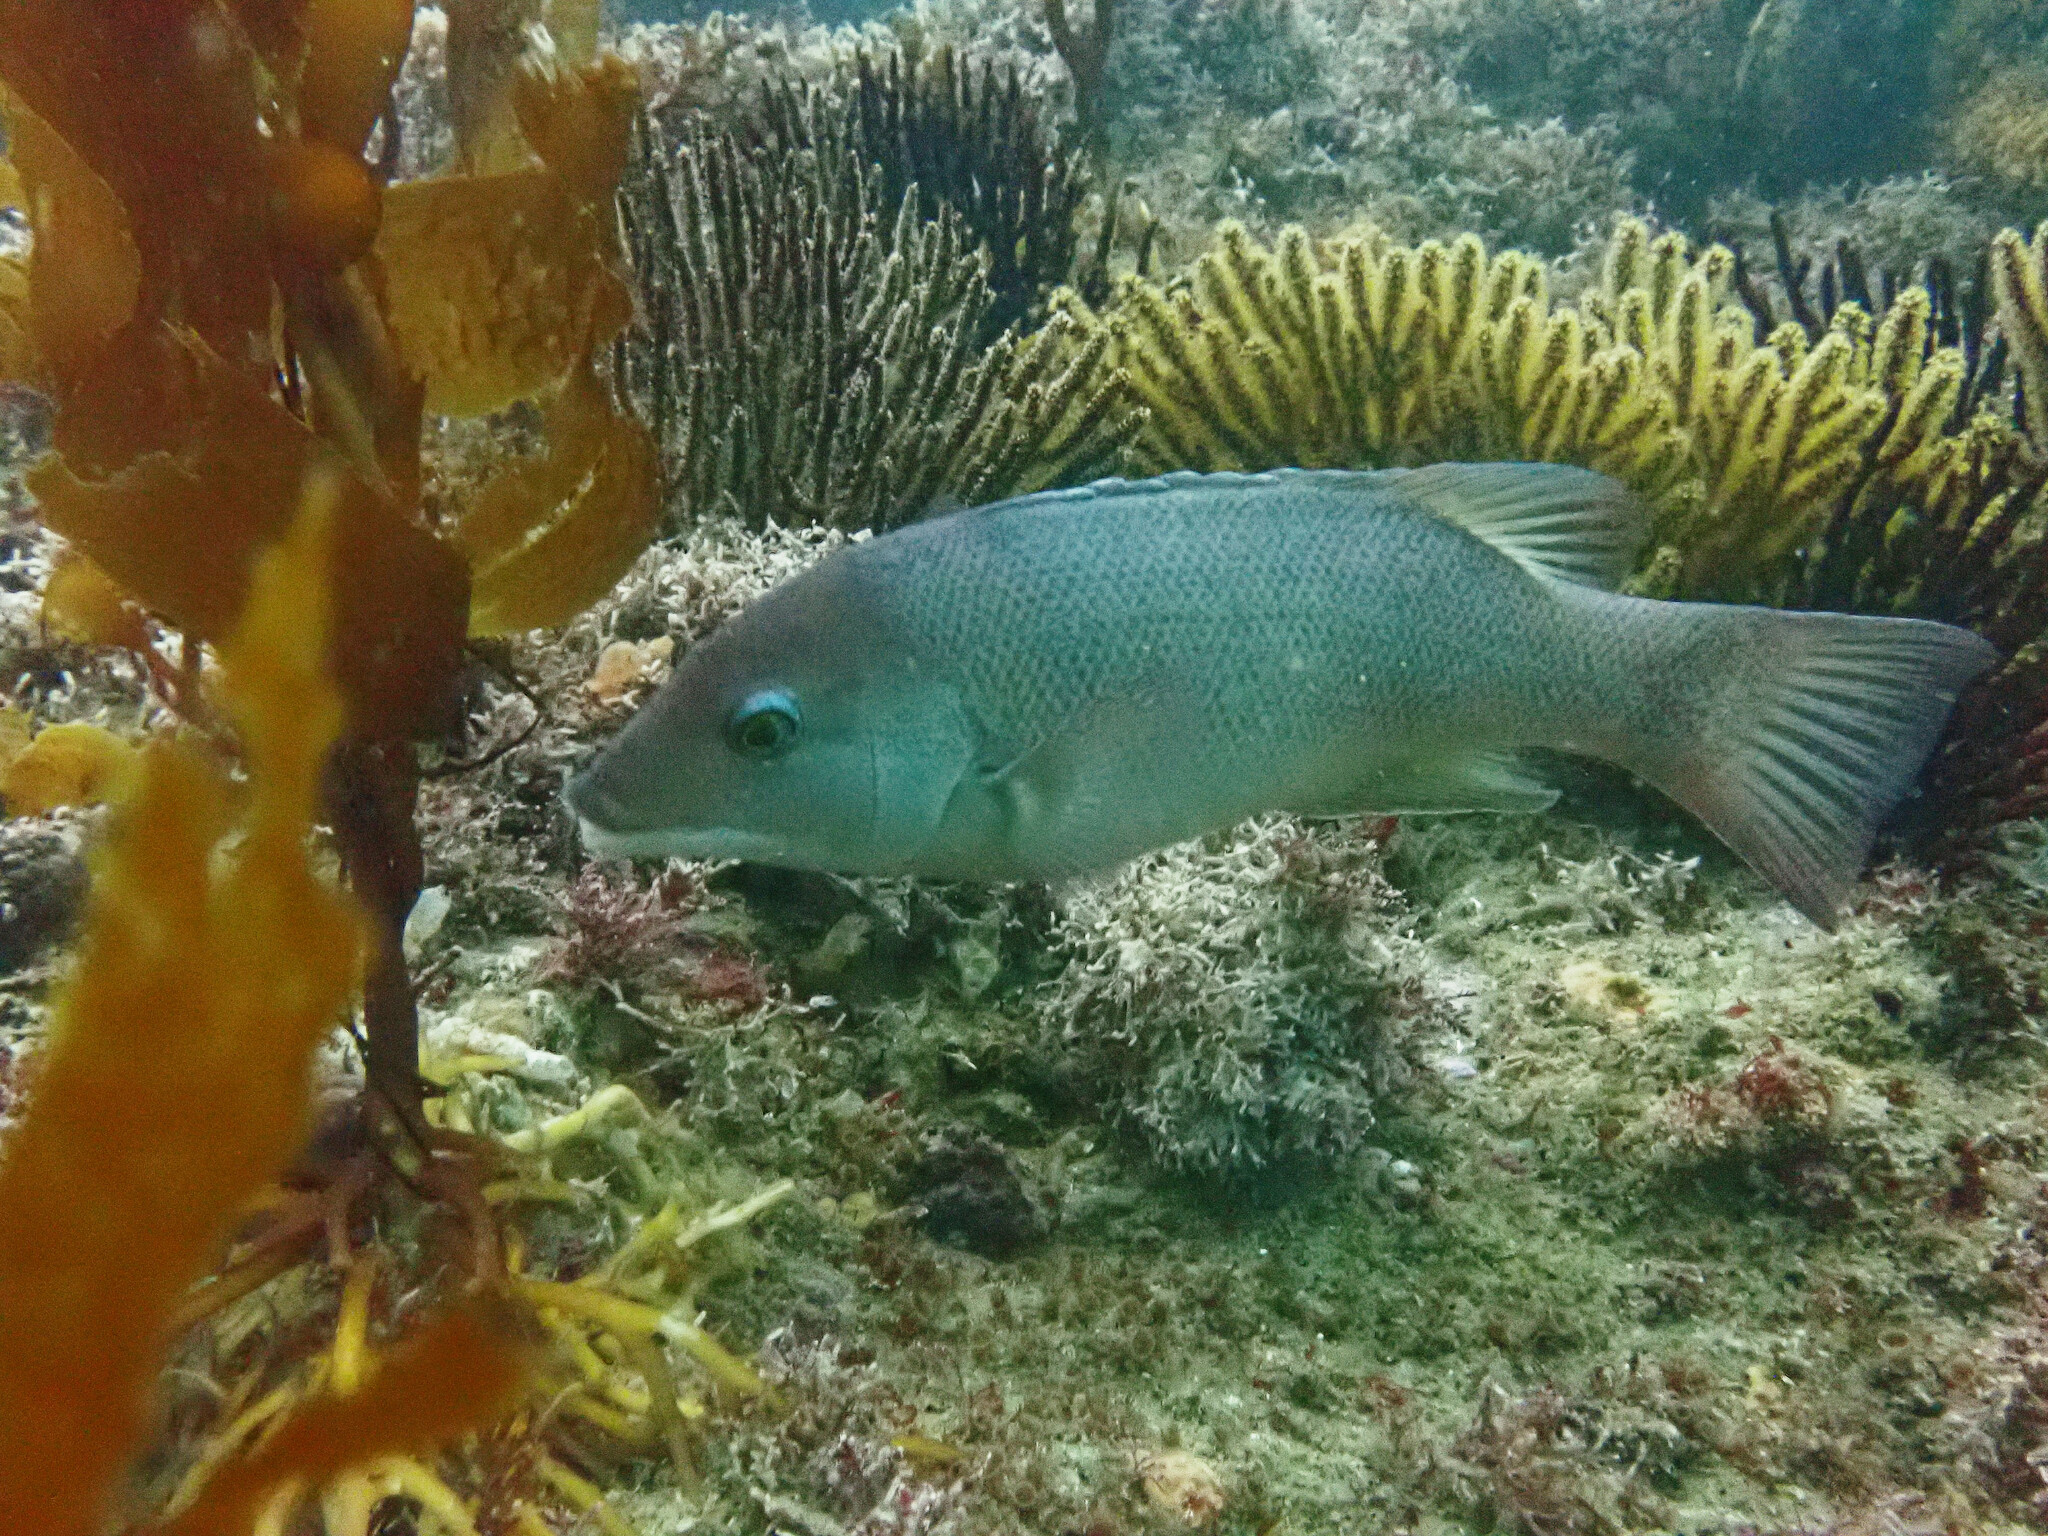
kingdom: Animalia
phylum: Chordata
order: Perciformes
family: Labridae
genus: Semicossyphus
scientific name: Semicossyphus pulcher
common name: California sheephead
